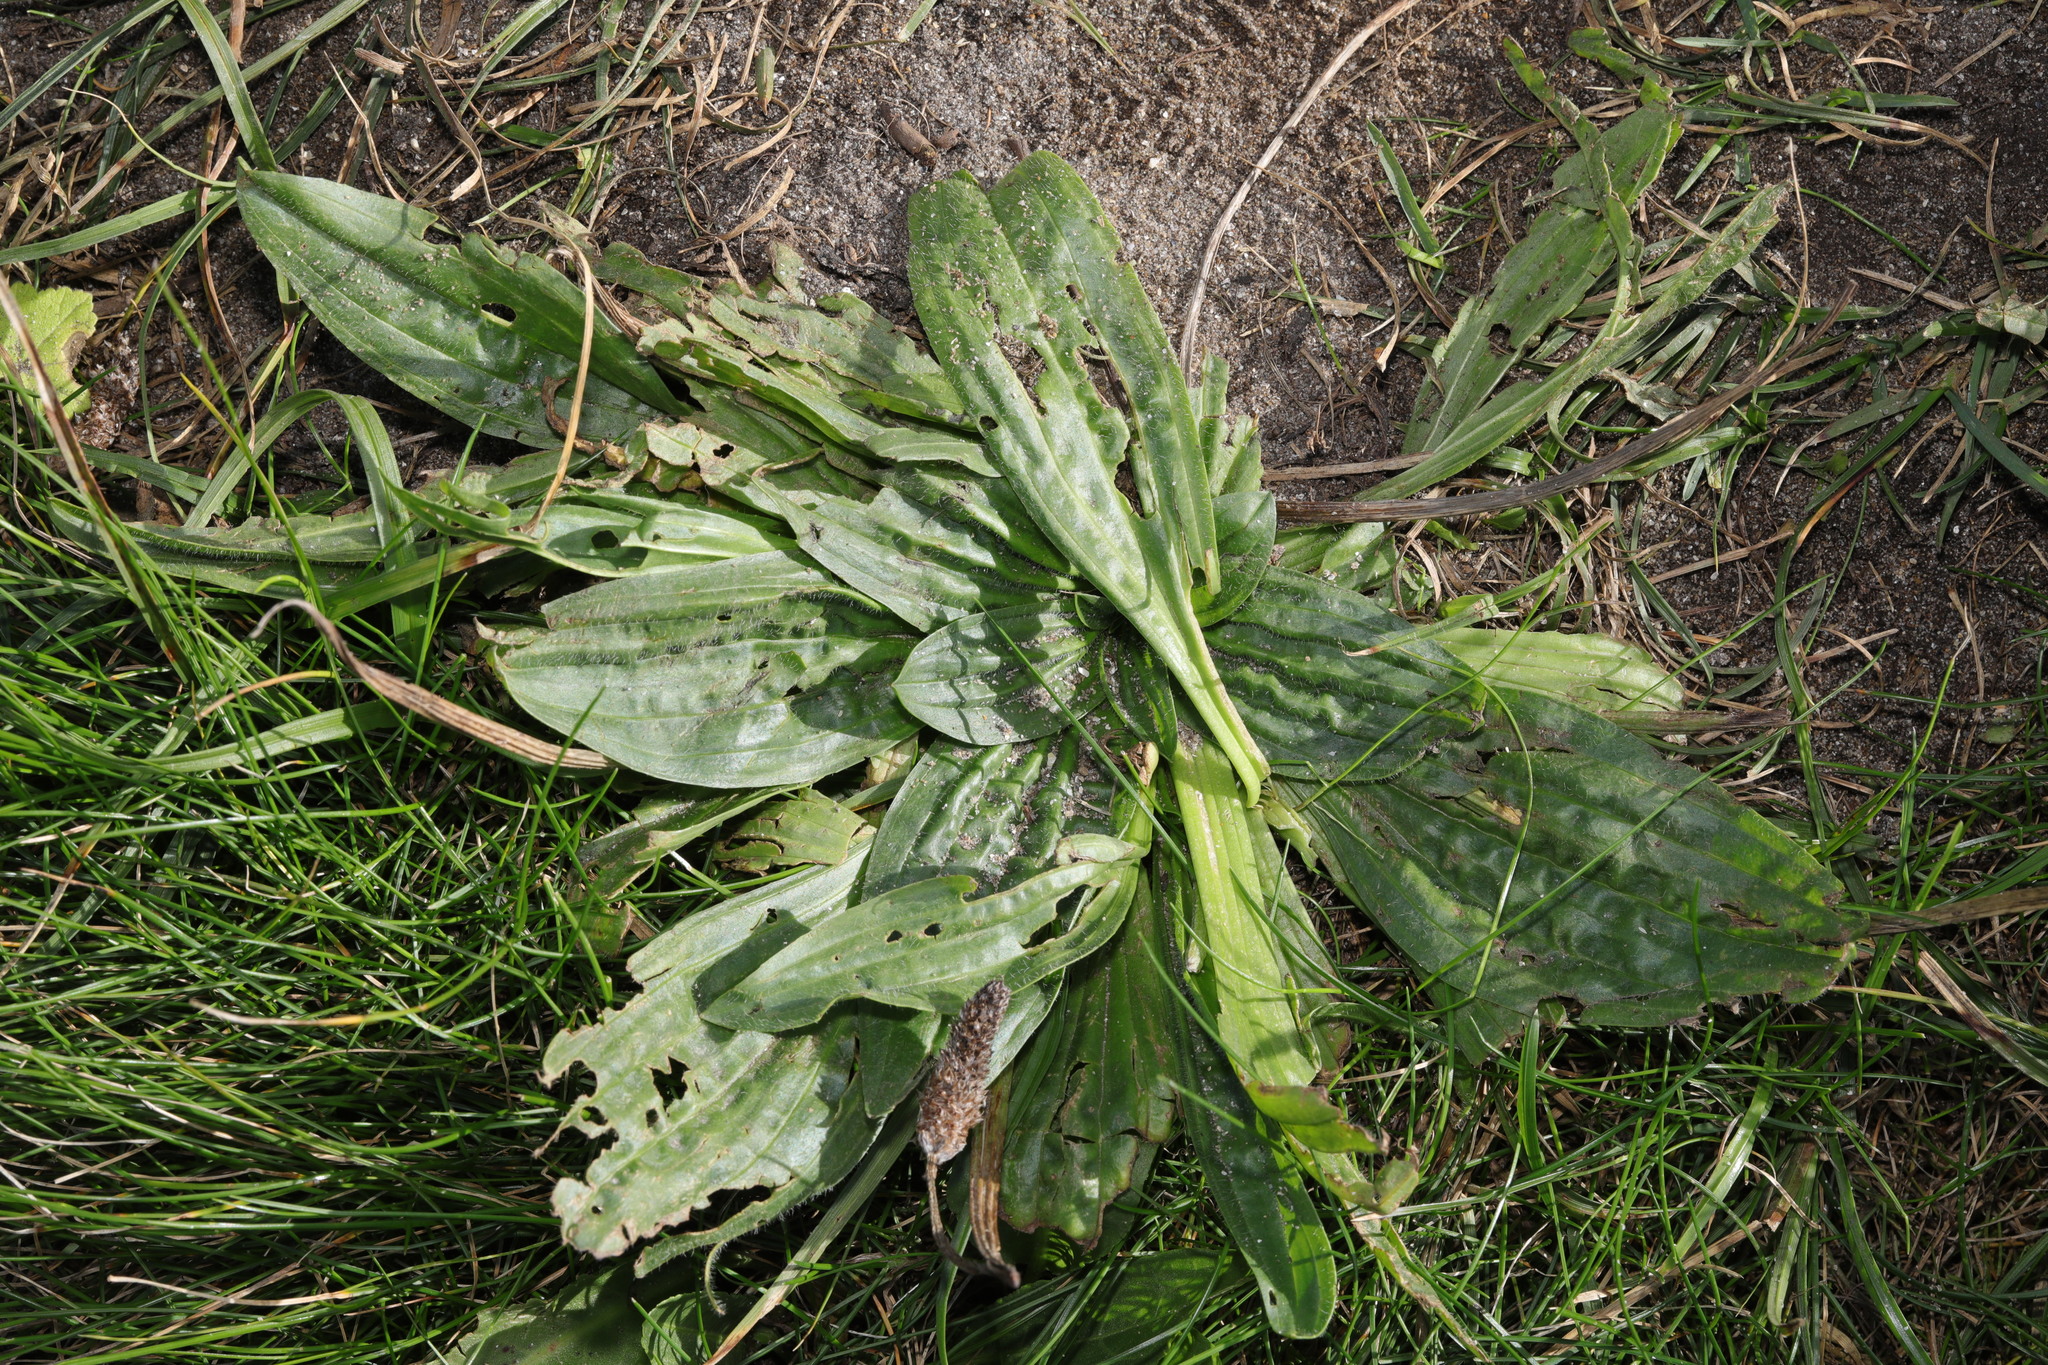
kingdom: Plantae
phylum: Tracheophyta
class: Magnoliopsida
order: Lamiales
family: Plantaginaceae
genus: Plantago
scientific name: Plantago major
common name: Common plantain
